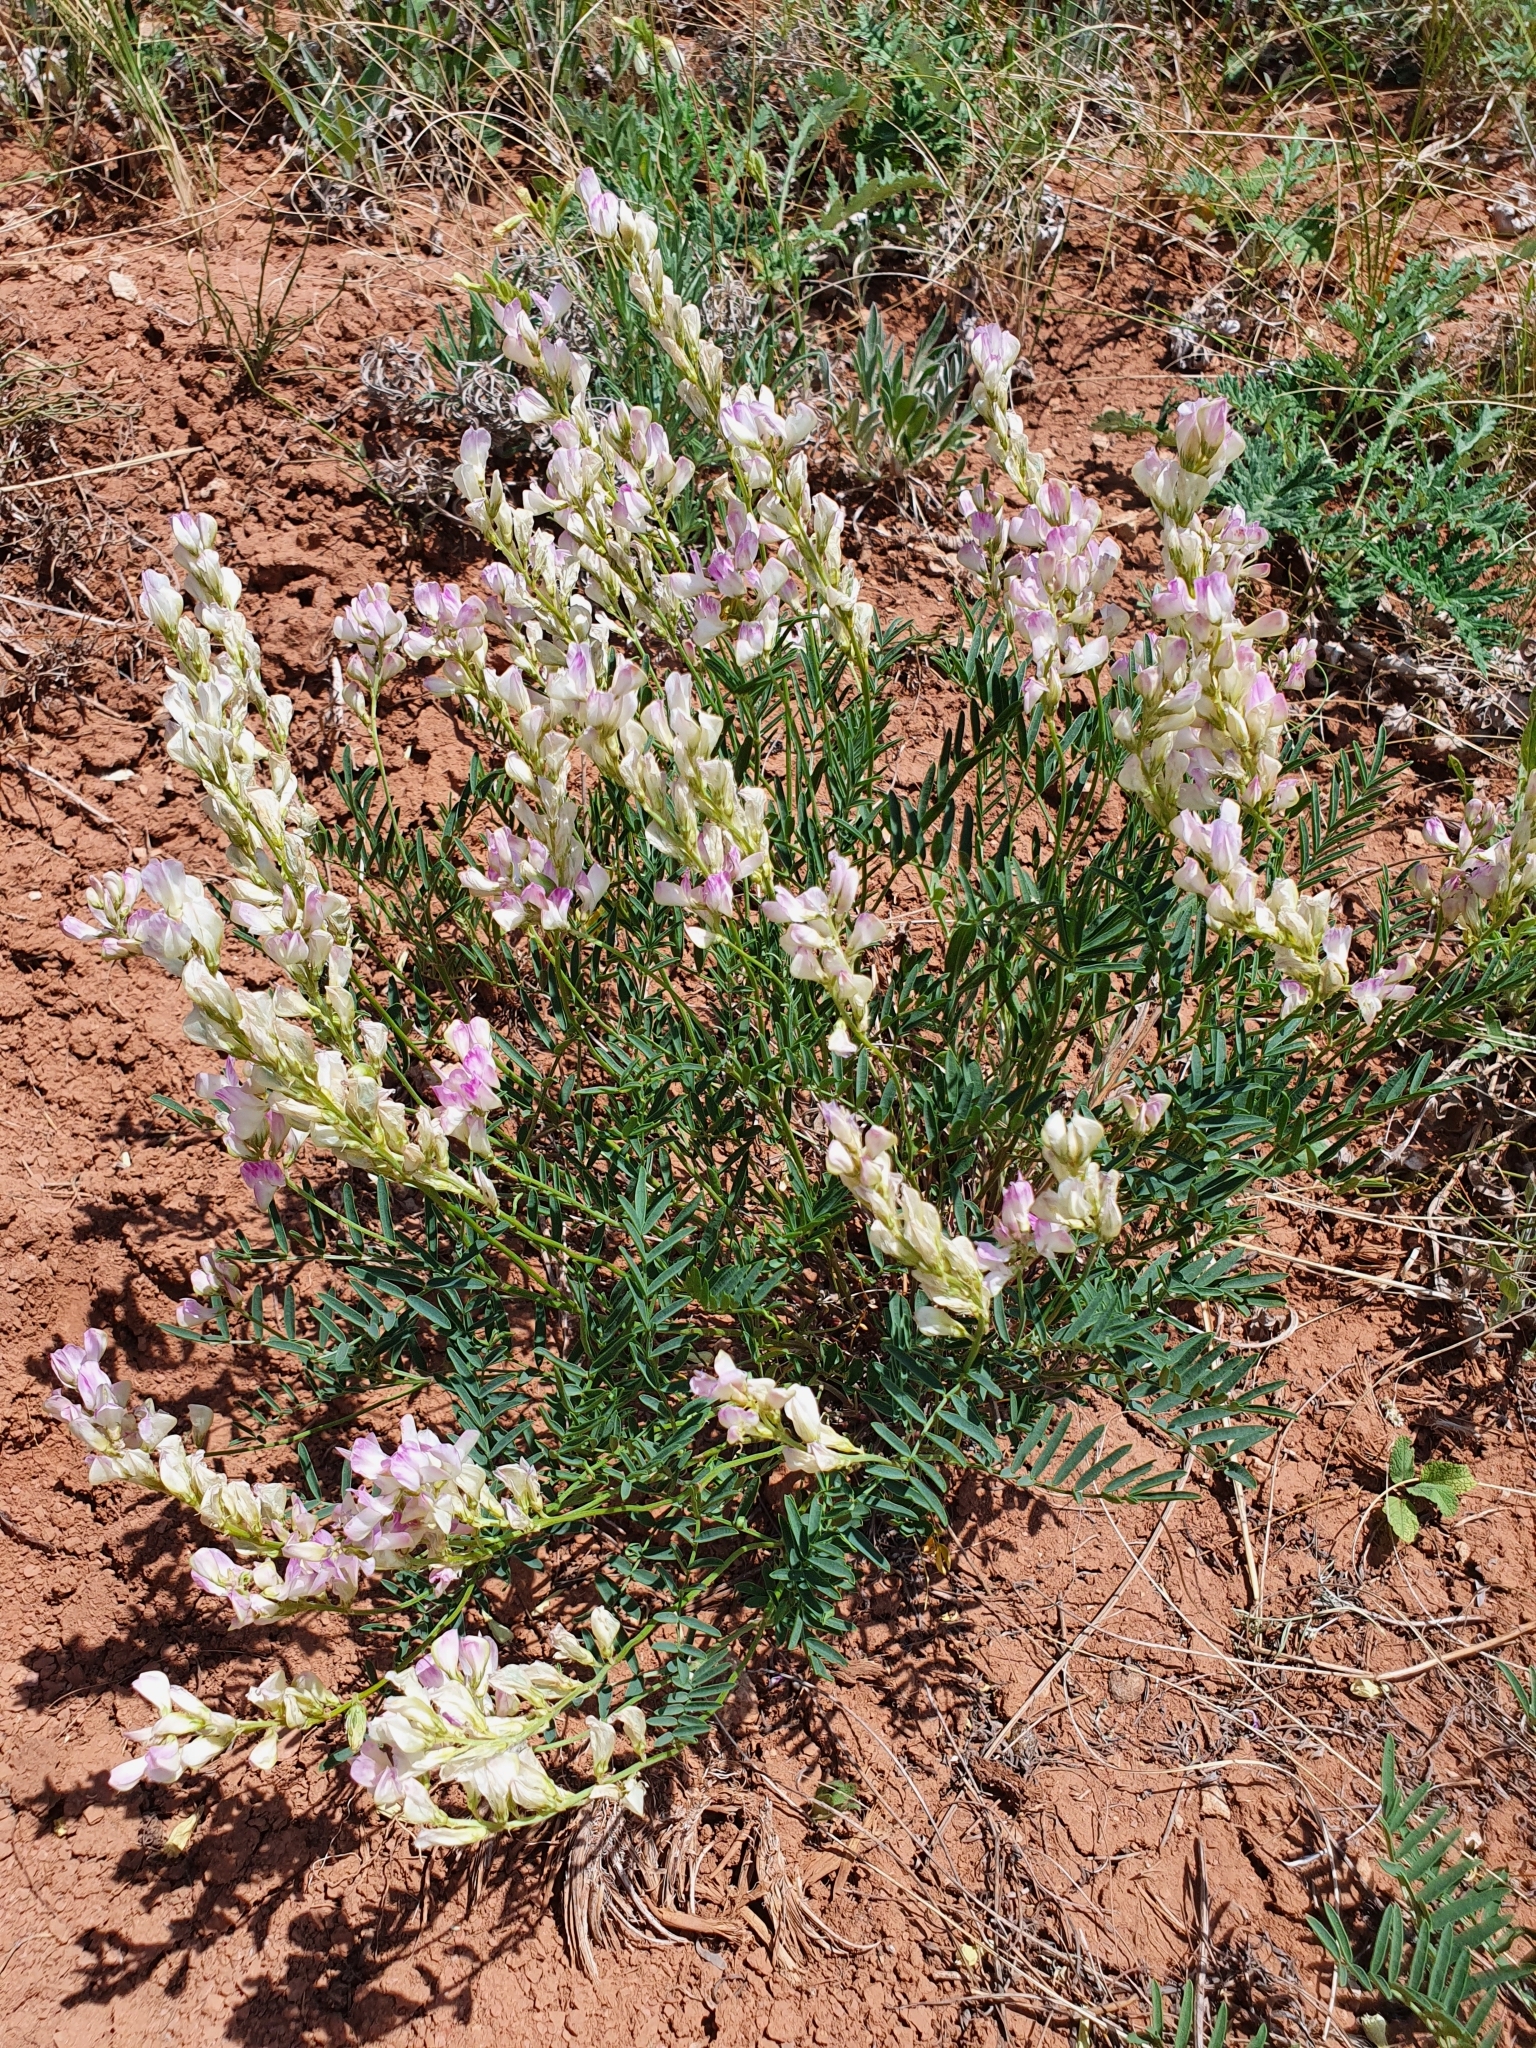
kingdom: Plantae
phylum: Tracheophyta
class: Magnoliopsida
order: Fabales
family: Fabaceae
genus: Hedysarum
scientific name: Hedysarum razoumovianum
